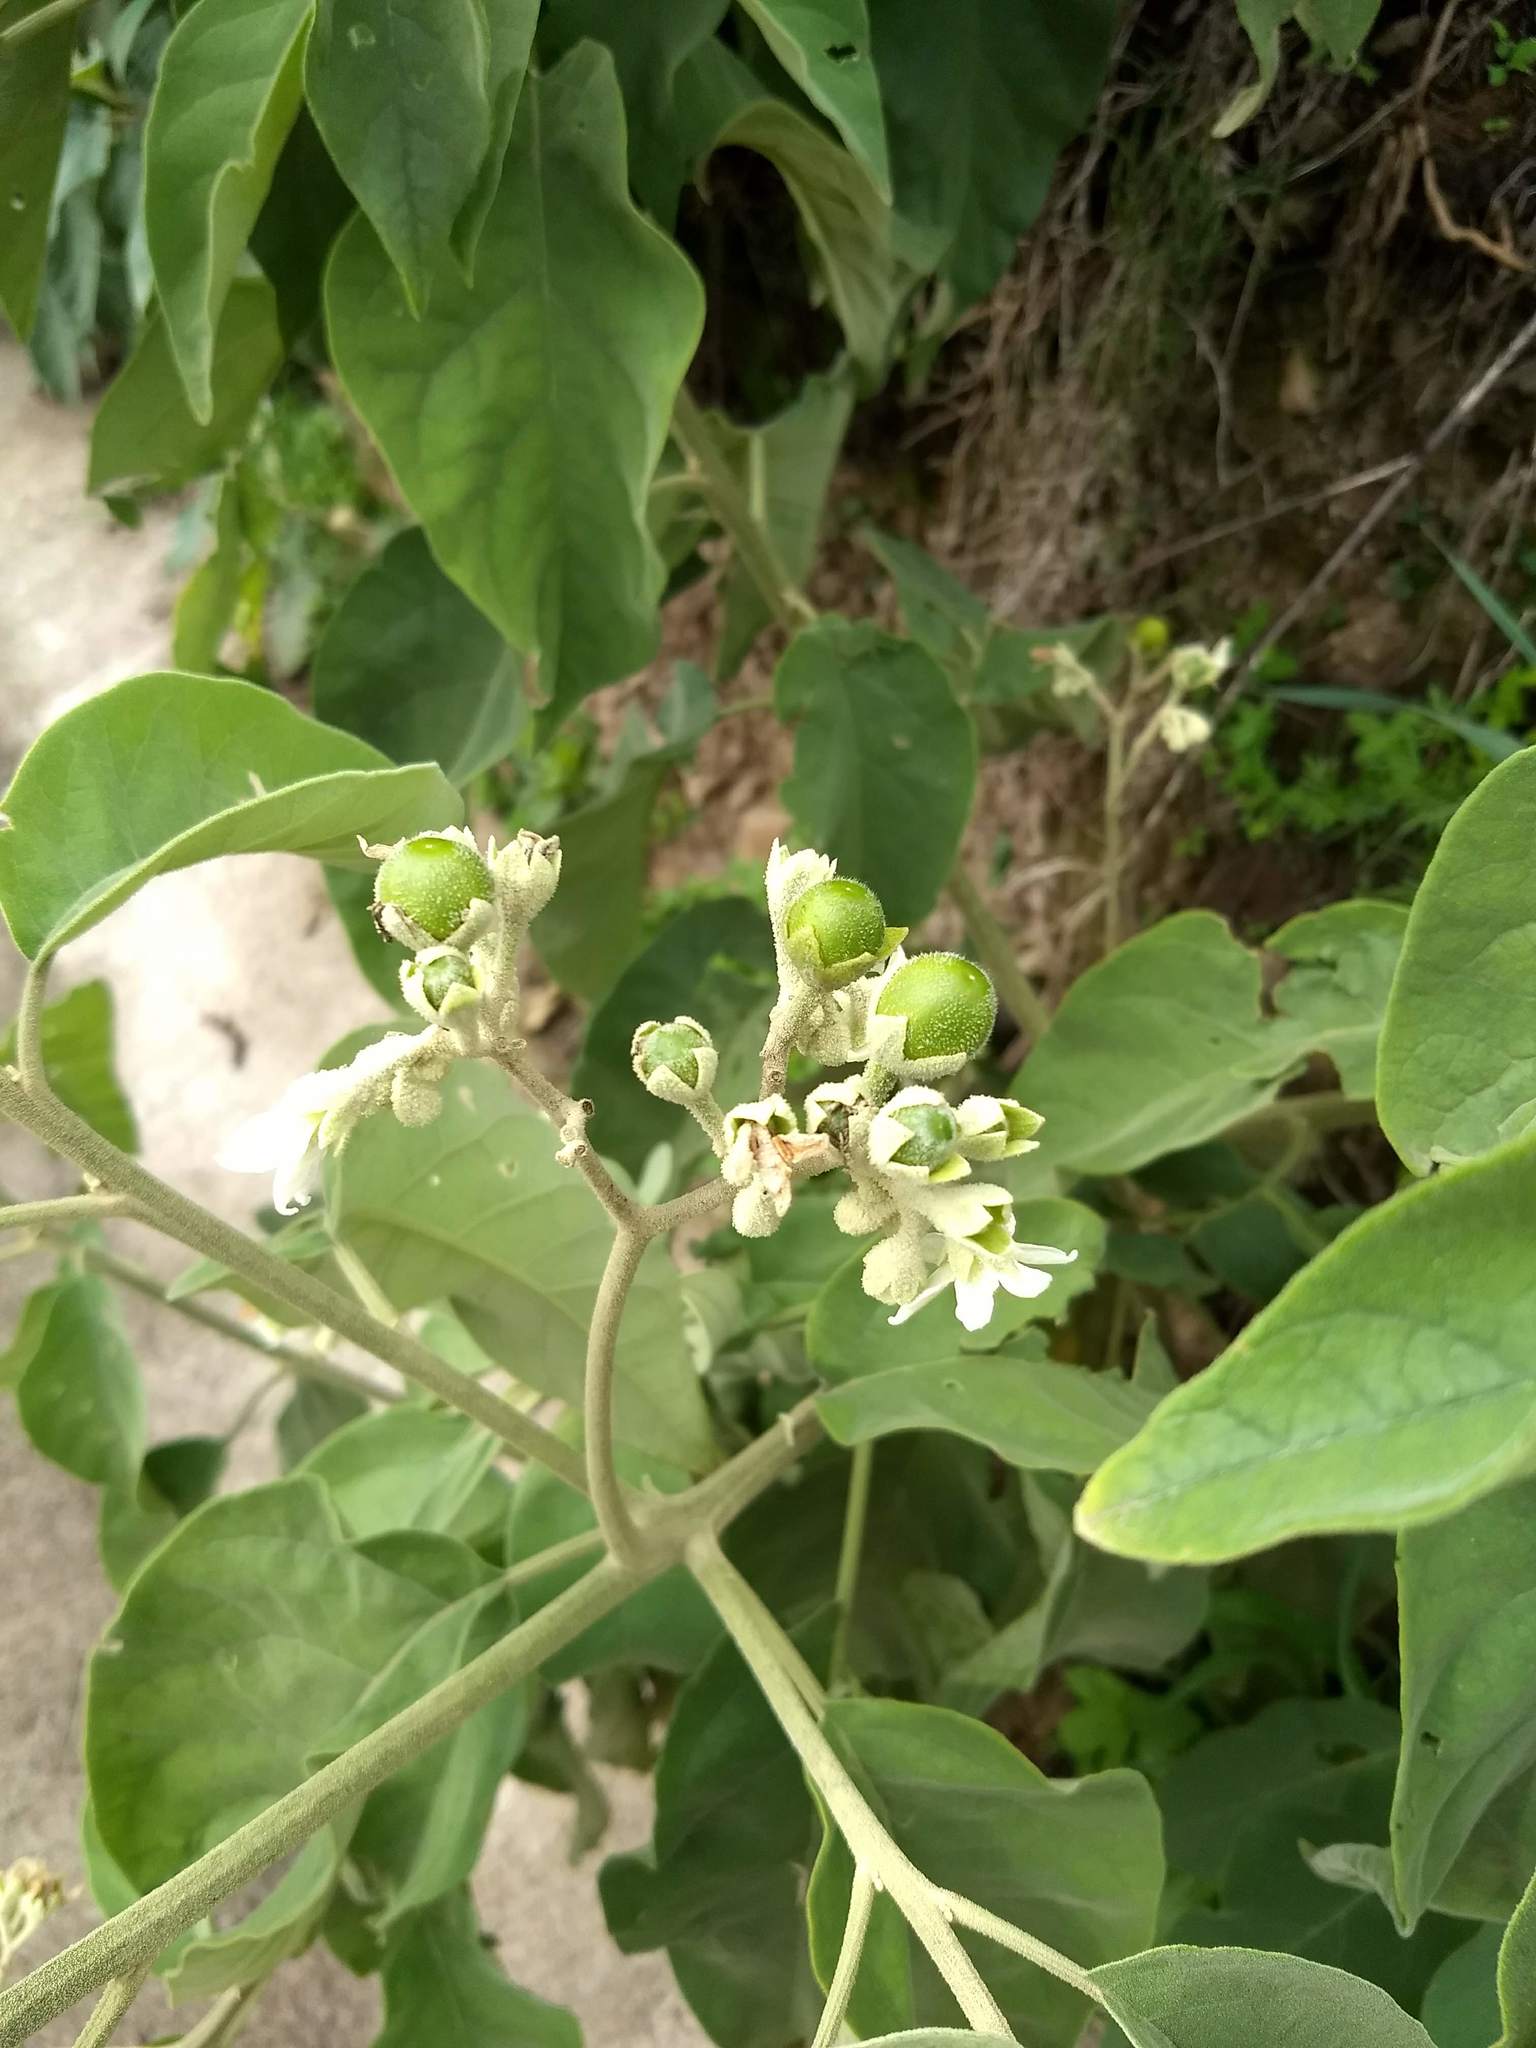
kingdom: Plantae
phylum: Tracheophyta
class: Magnoliopsida
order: Solanales
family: Solanaceae
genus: Solanum
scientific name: Solanum erianthum
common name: Tobacco-tree
